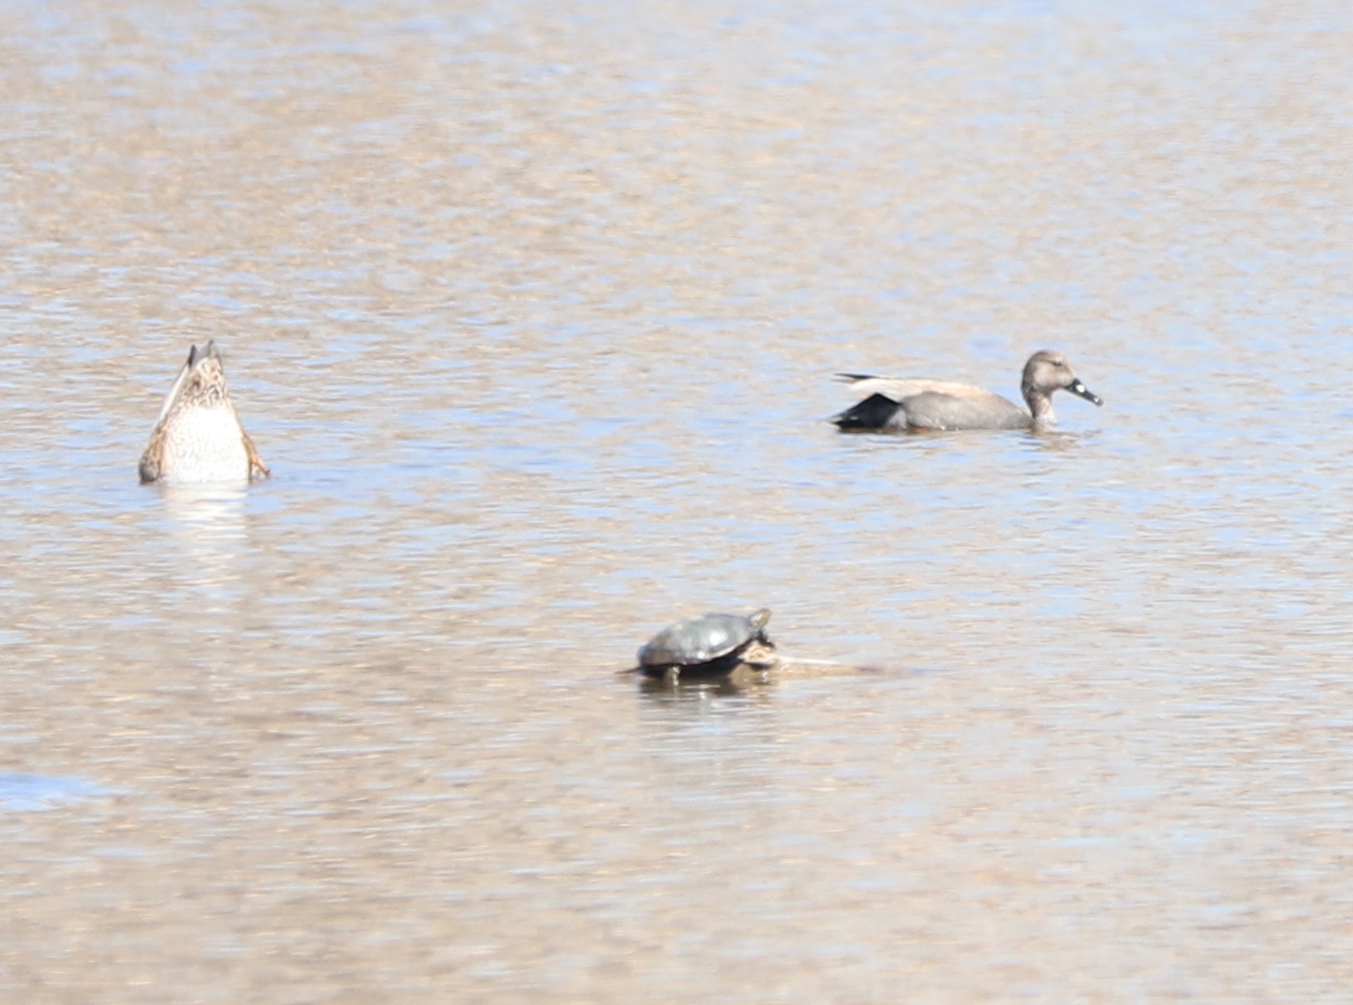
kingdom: Animalia
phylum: Chordata
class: Aves
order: Anseriformes
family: Anatidae
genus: Mareca
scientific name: Mareca strepera
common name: Gadwall
